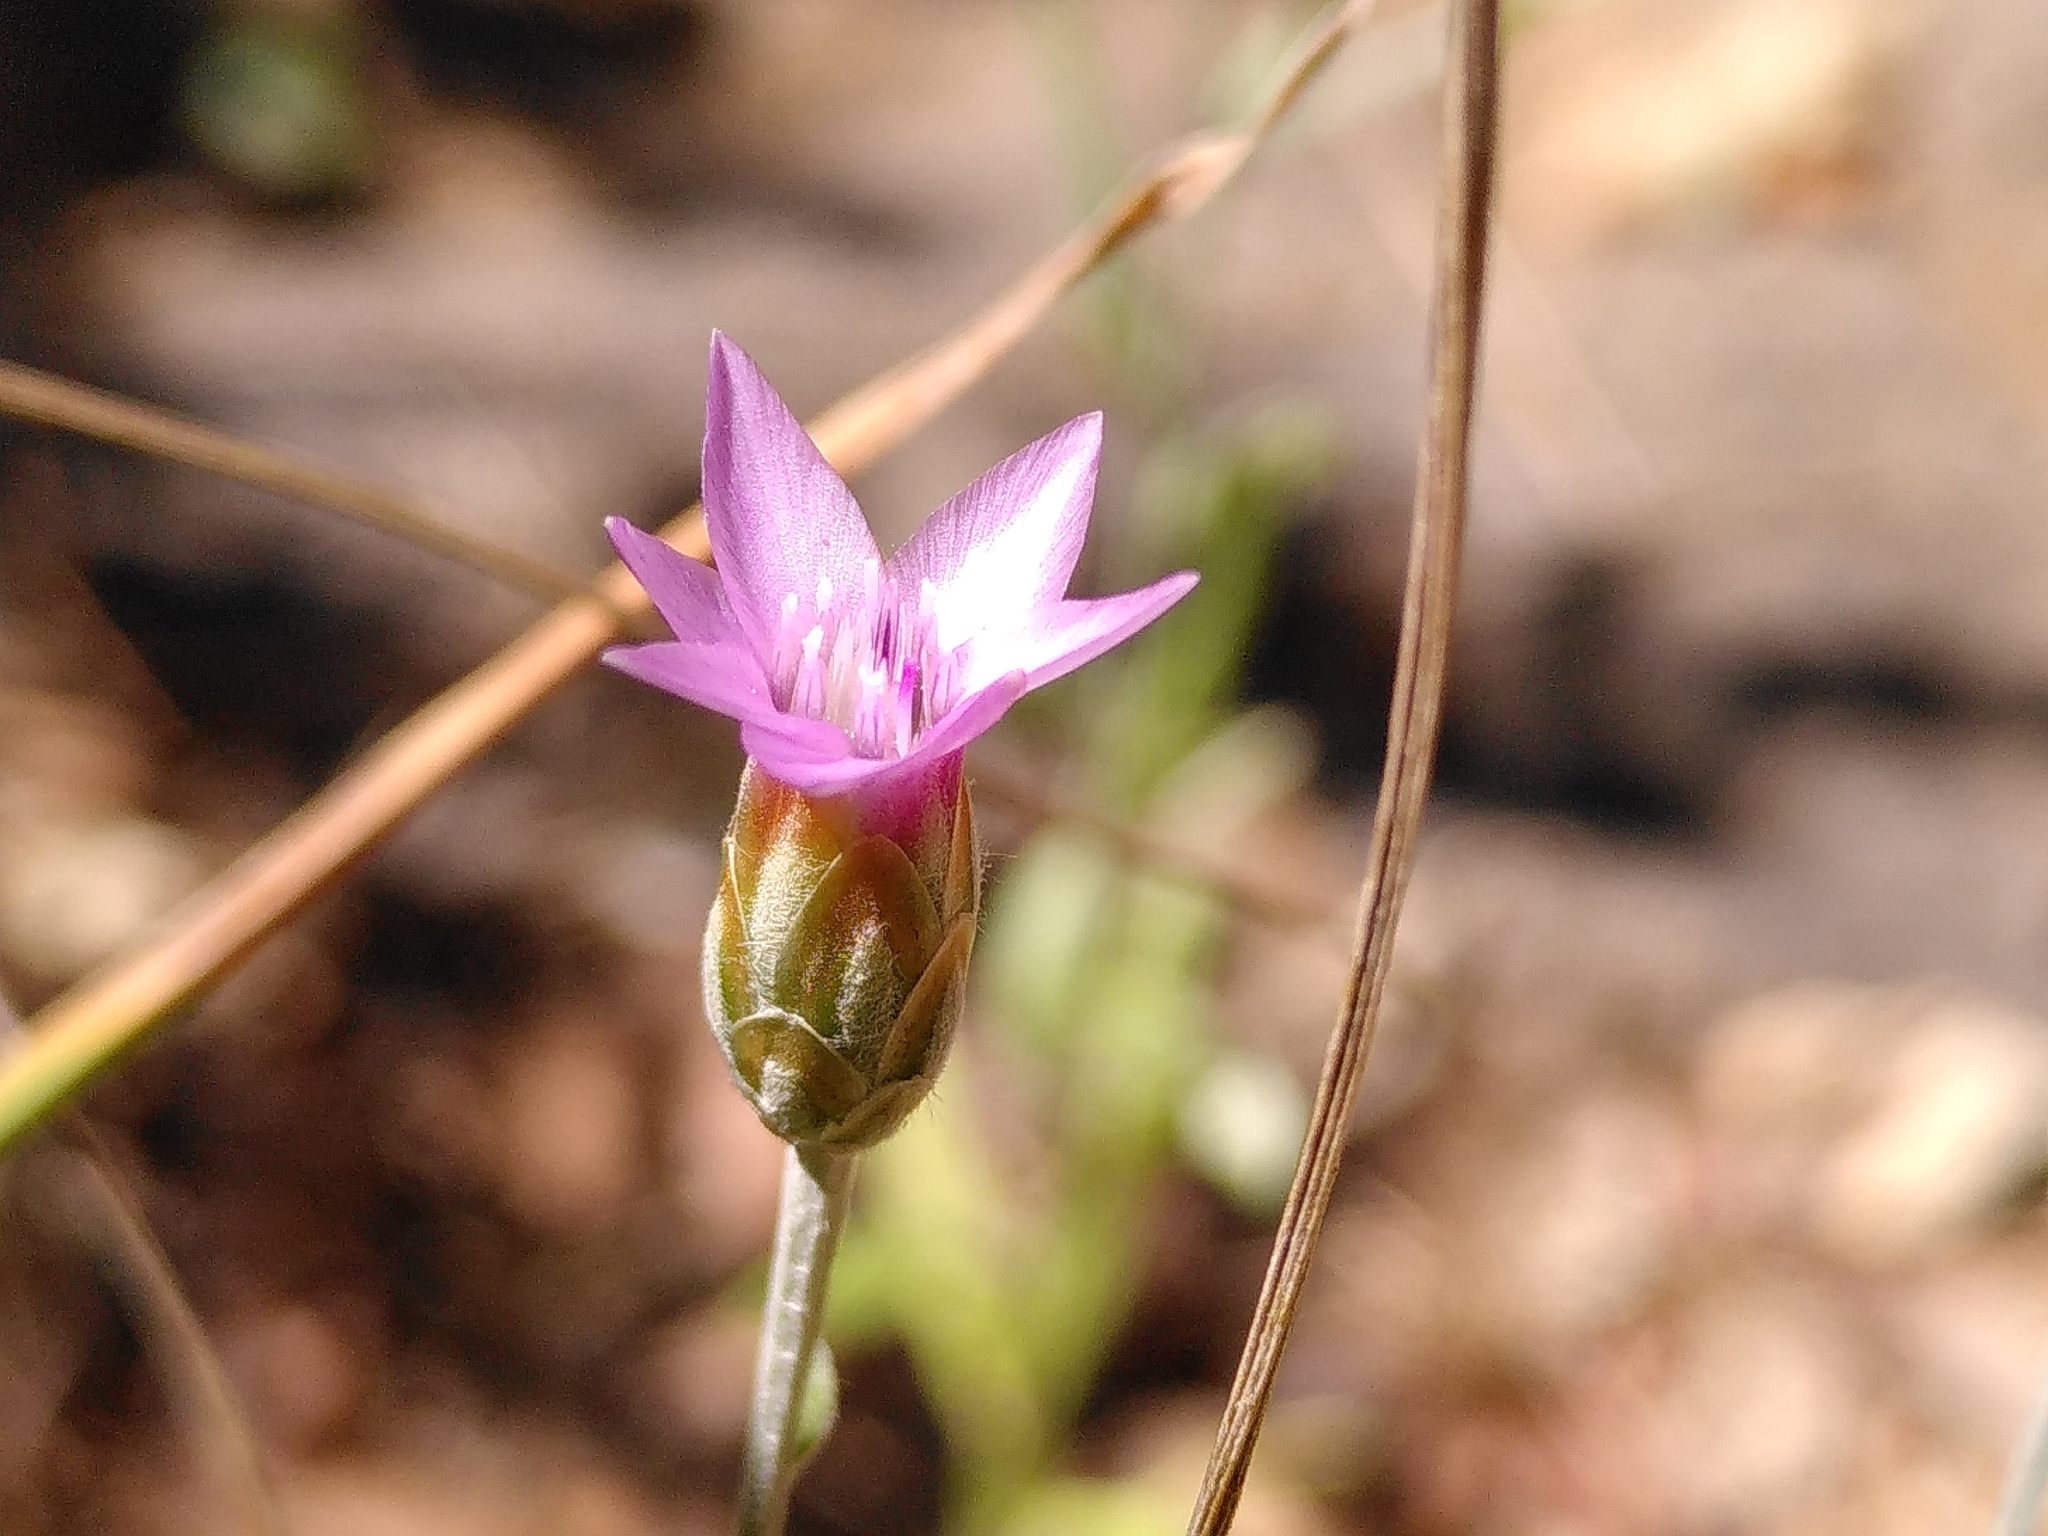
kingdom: Plantae
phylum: Tracheophyta
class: Magnoliopsida
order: Asterales
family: Asteraceae
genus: Xeranthemum
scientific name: Xeranthemum cylindraceum
